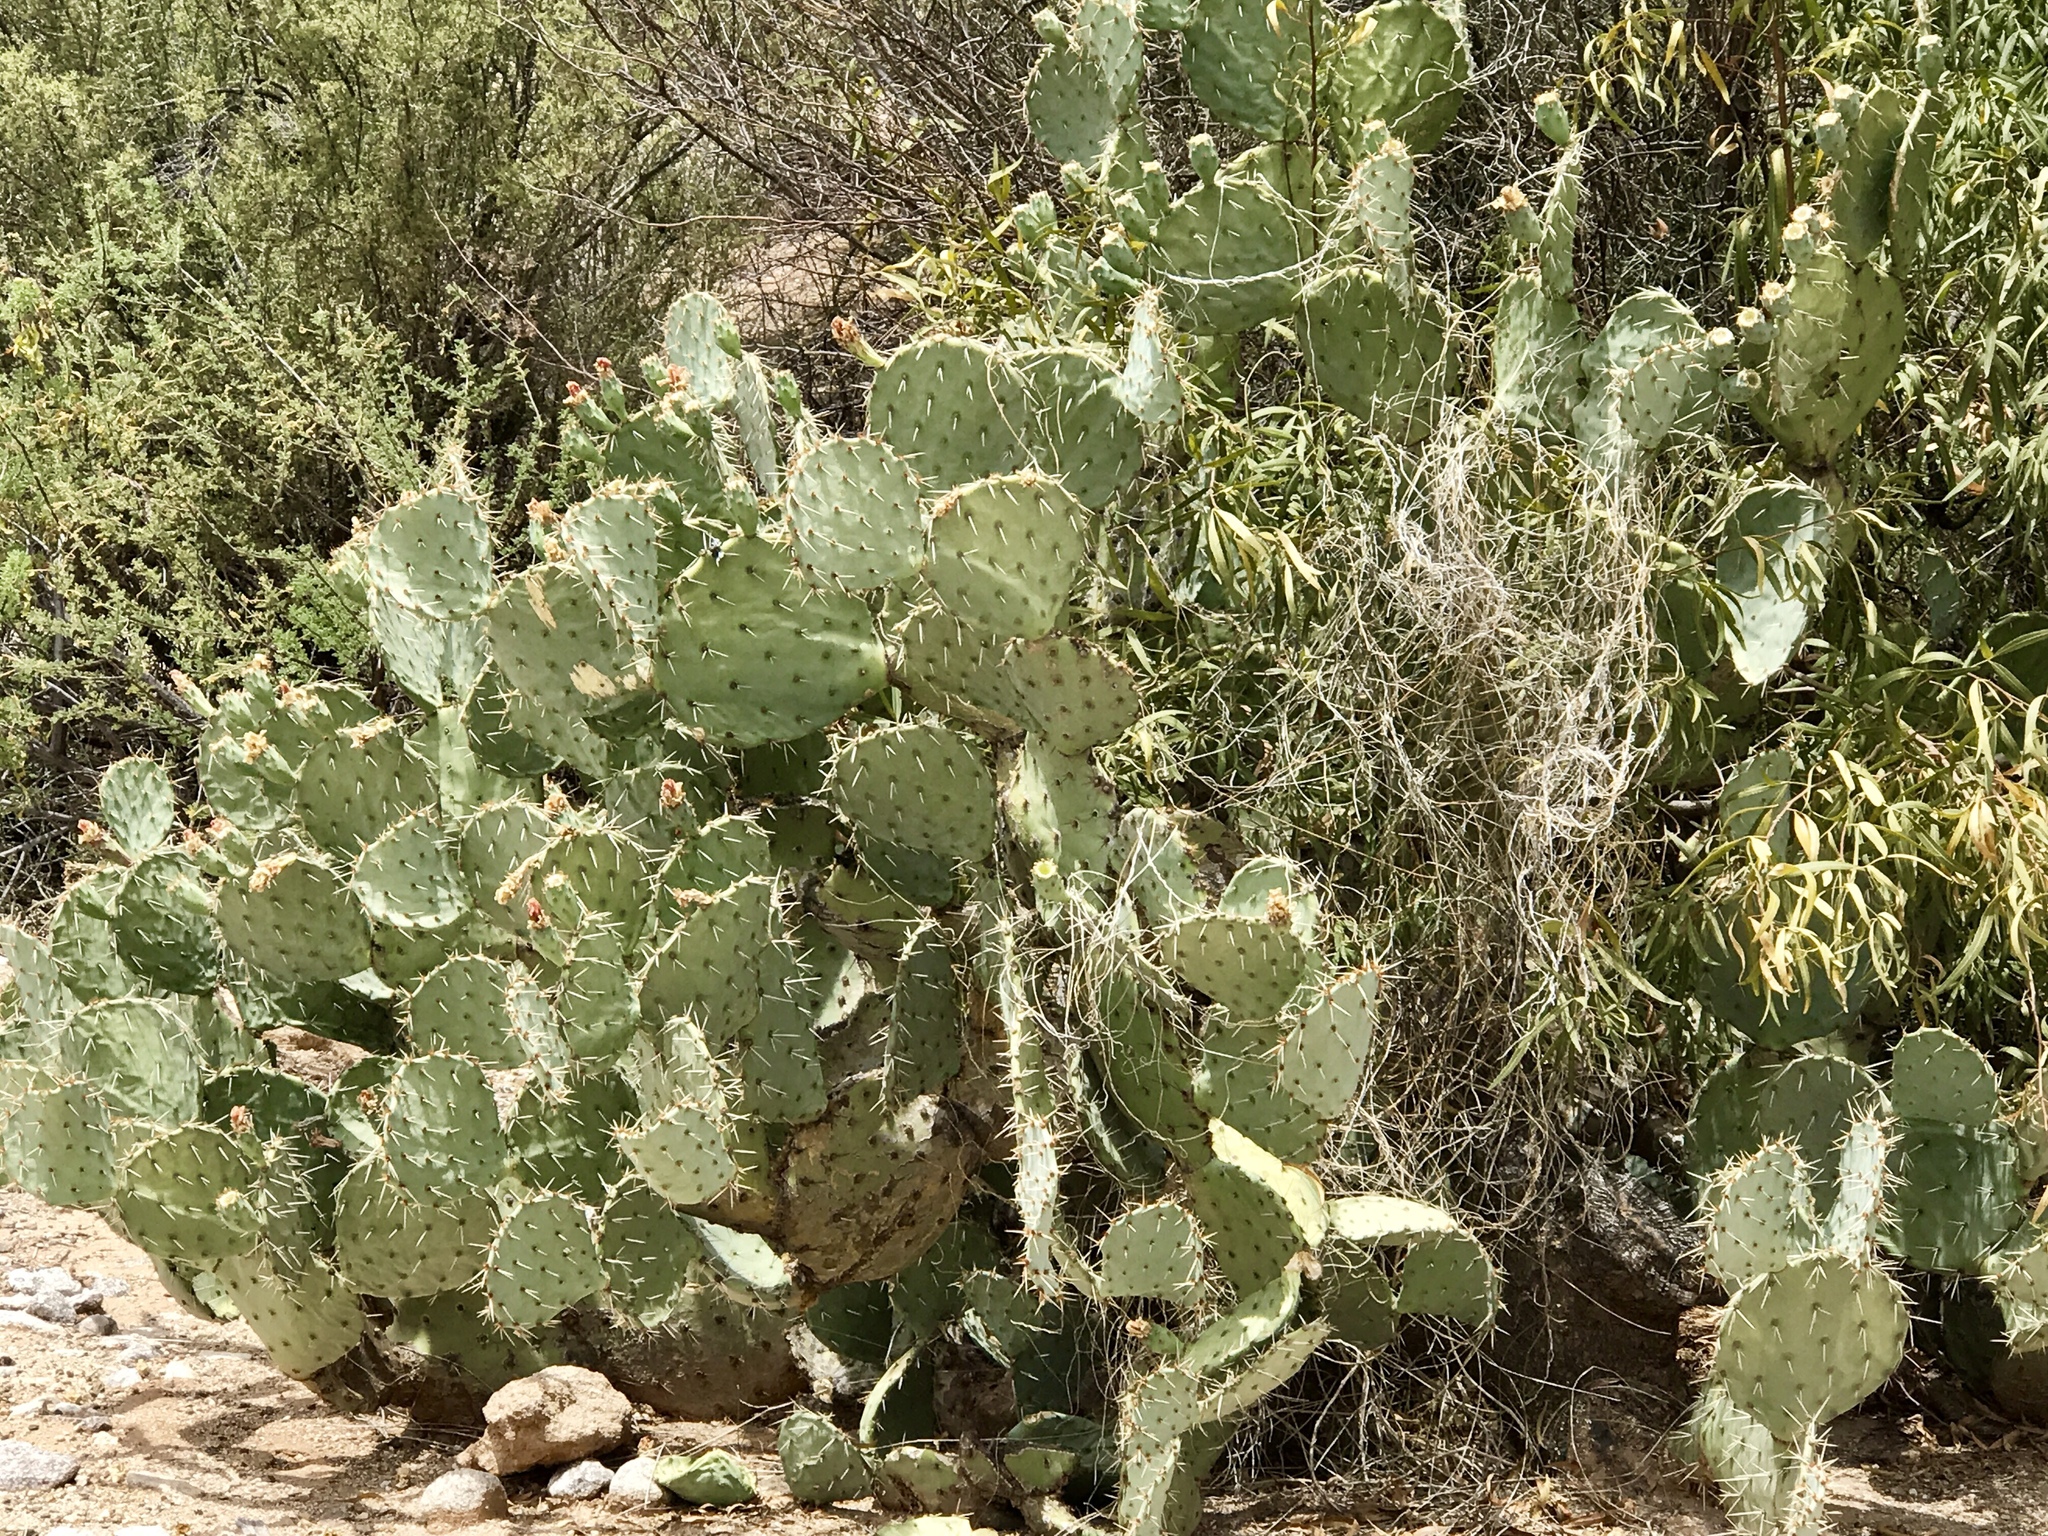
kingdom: Plantae
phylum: Tracheophyta
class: Magnoliopsida
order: Caryophyllales
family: Cactaceae
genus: Opuntia
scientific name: Opuntia engelmannii
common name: Cactus-apple
